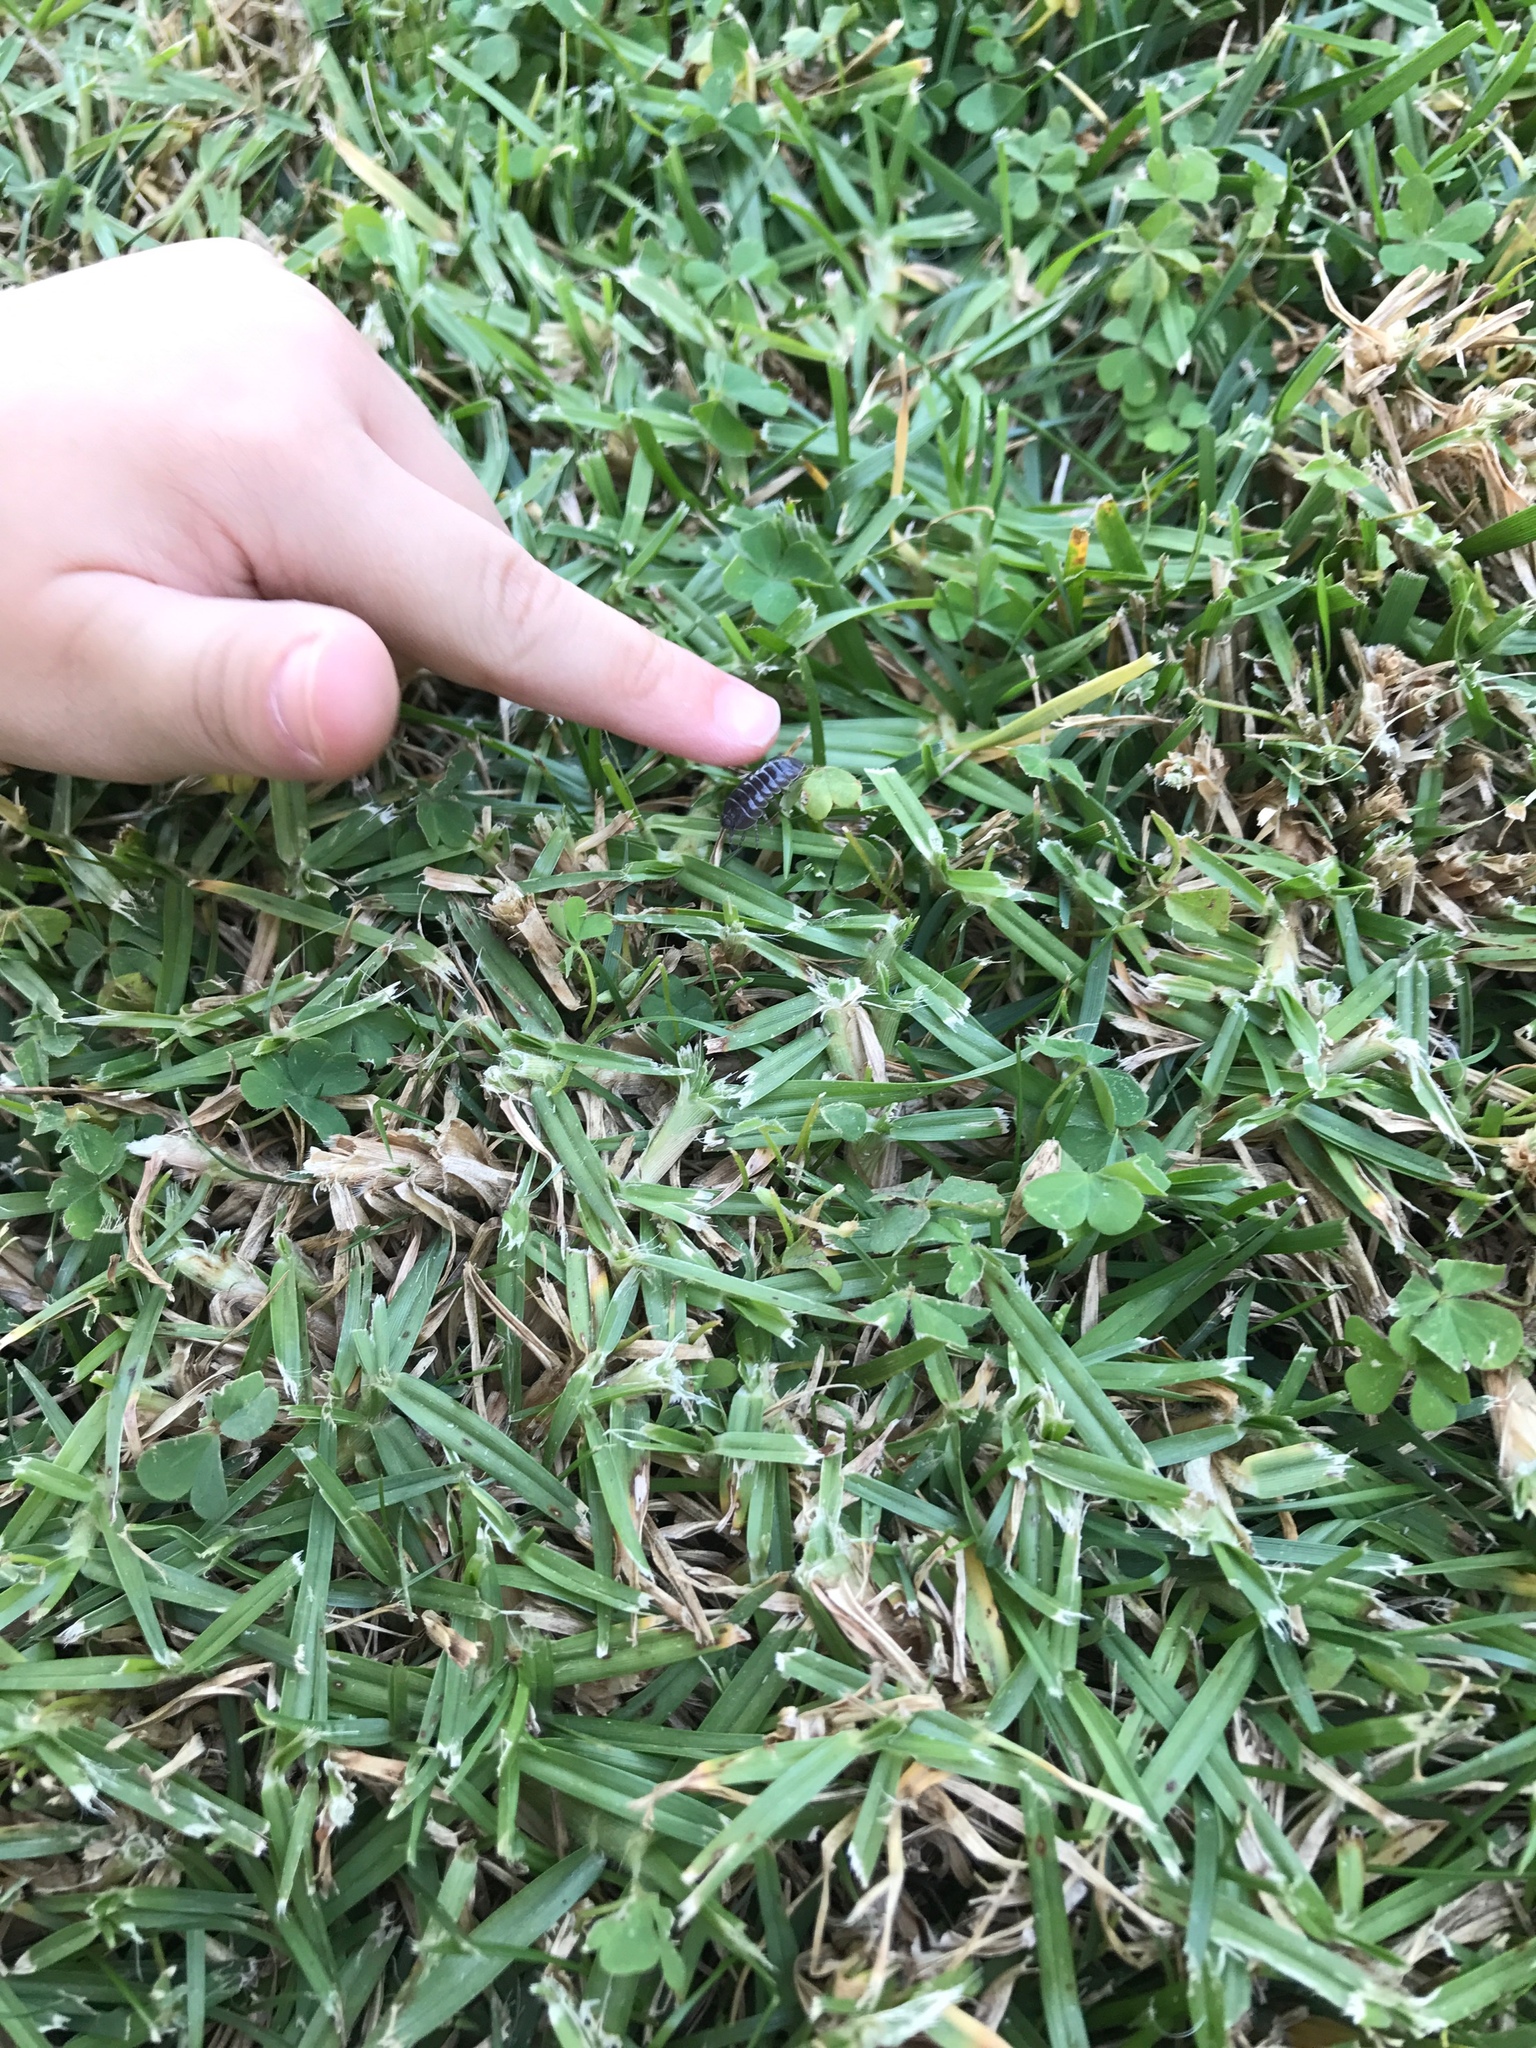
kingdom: Animalia
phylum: Arthropoda
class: Malacostraca
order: Isopoda
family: Armadillidiidae
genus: Armadillidium
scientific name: Armadillidium vulgare
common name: Common pill woodlouse
